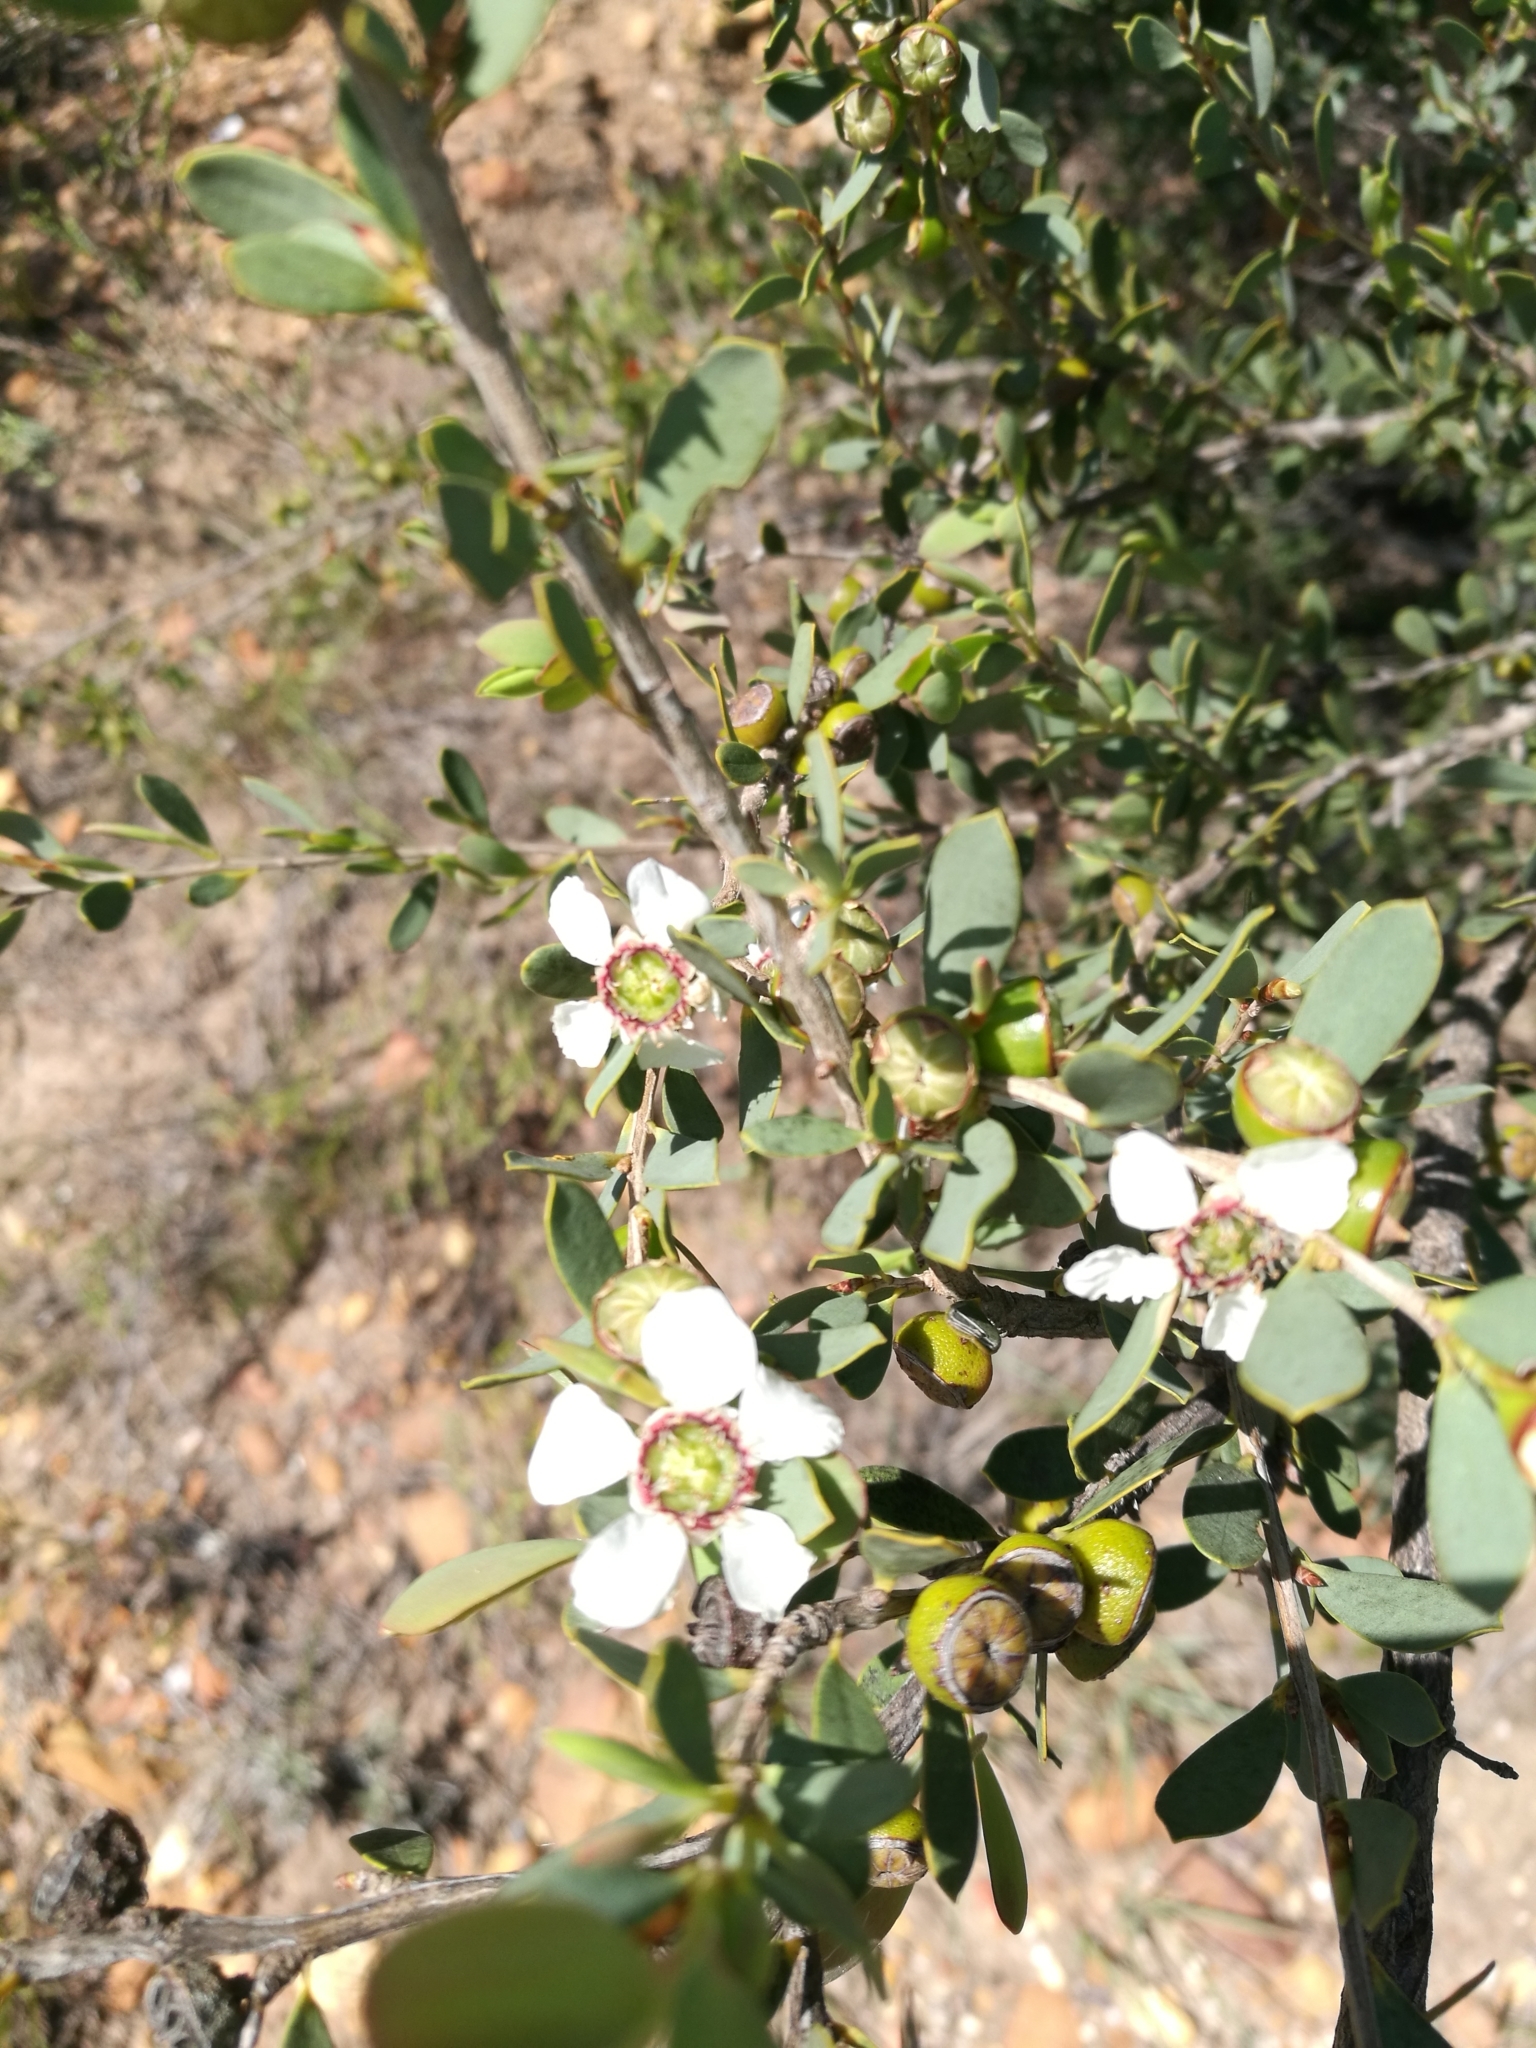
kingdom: Plantae
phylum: Tracheophyta
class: Magnoliopsida
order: Myrtales
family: Myrtaceae
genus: Leptospermum
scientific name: Leptospermum laevigatum
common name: Australian teatree
